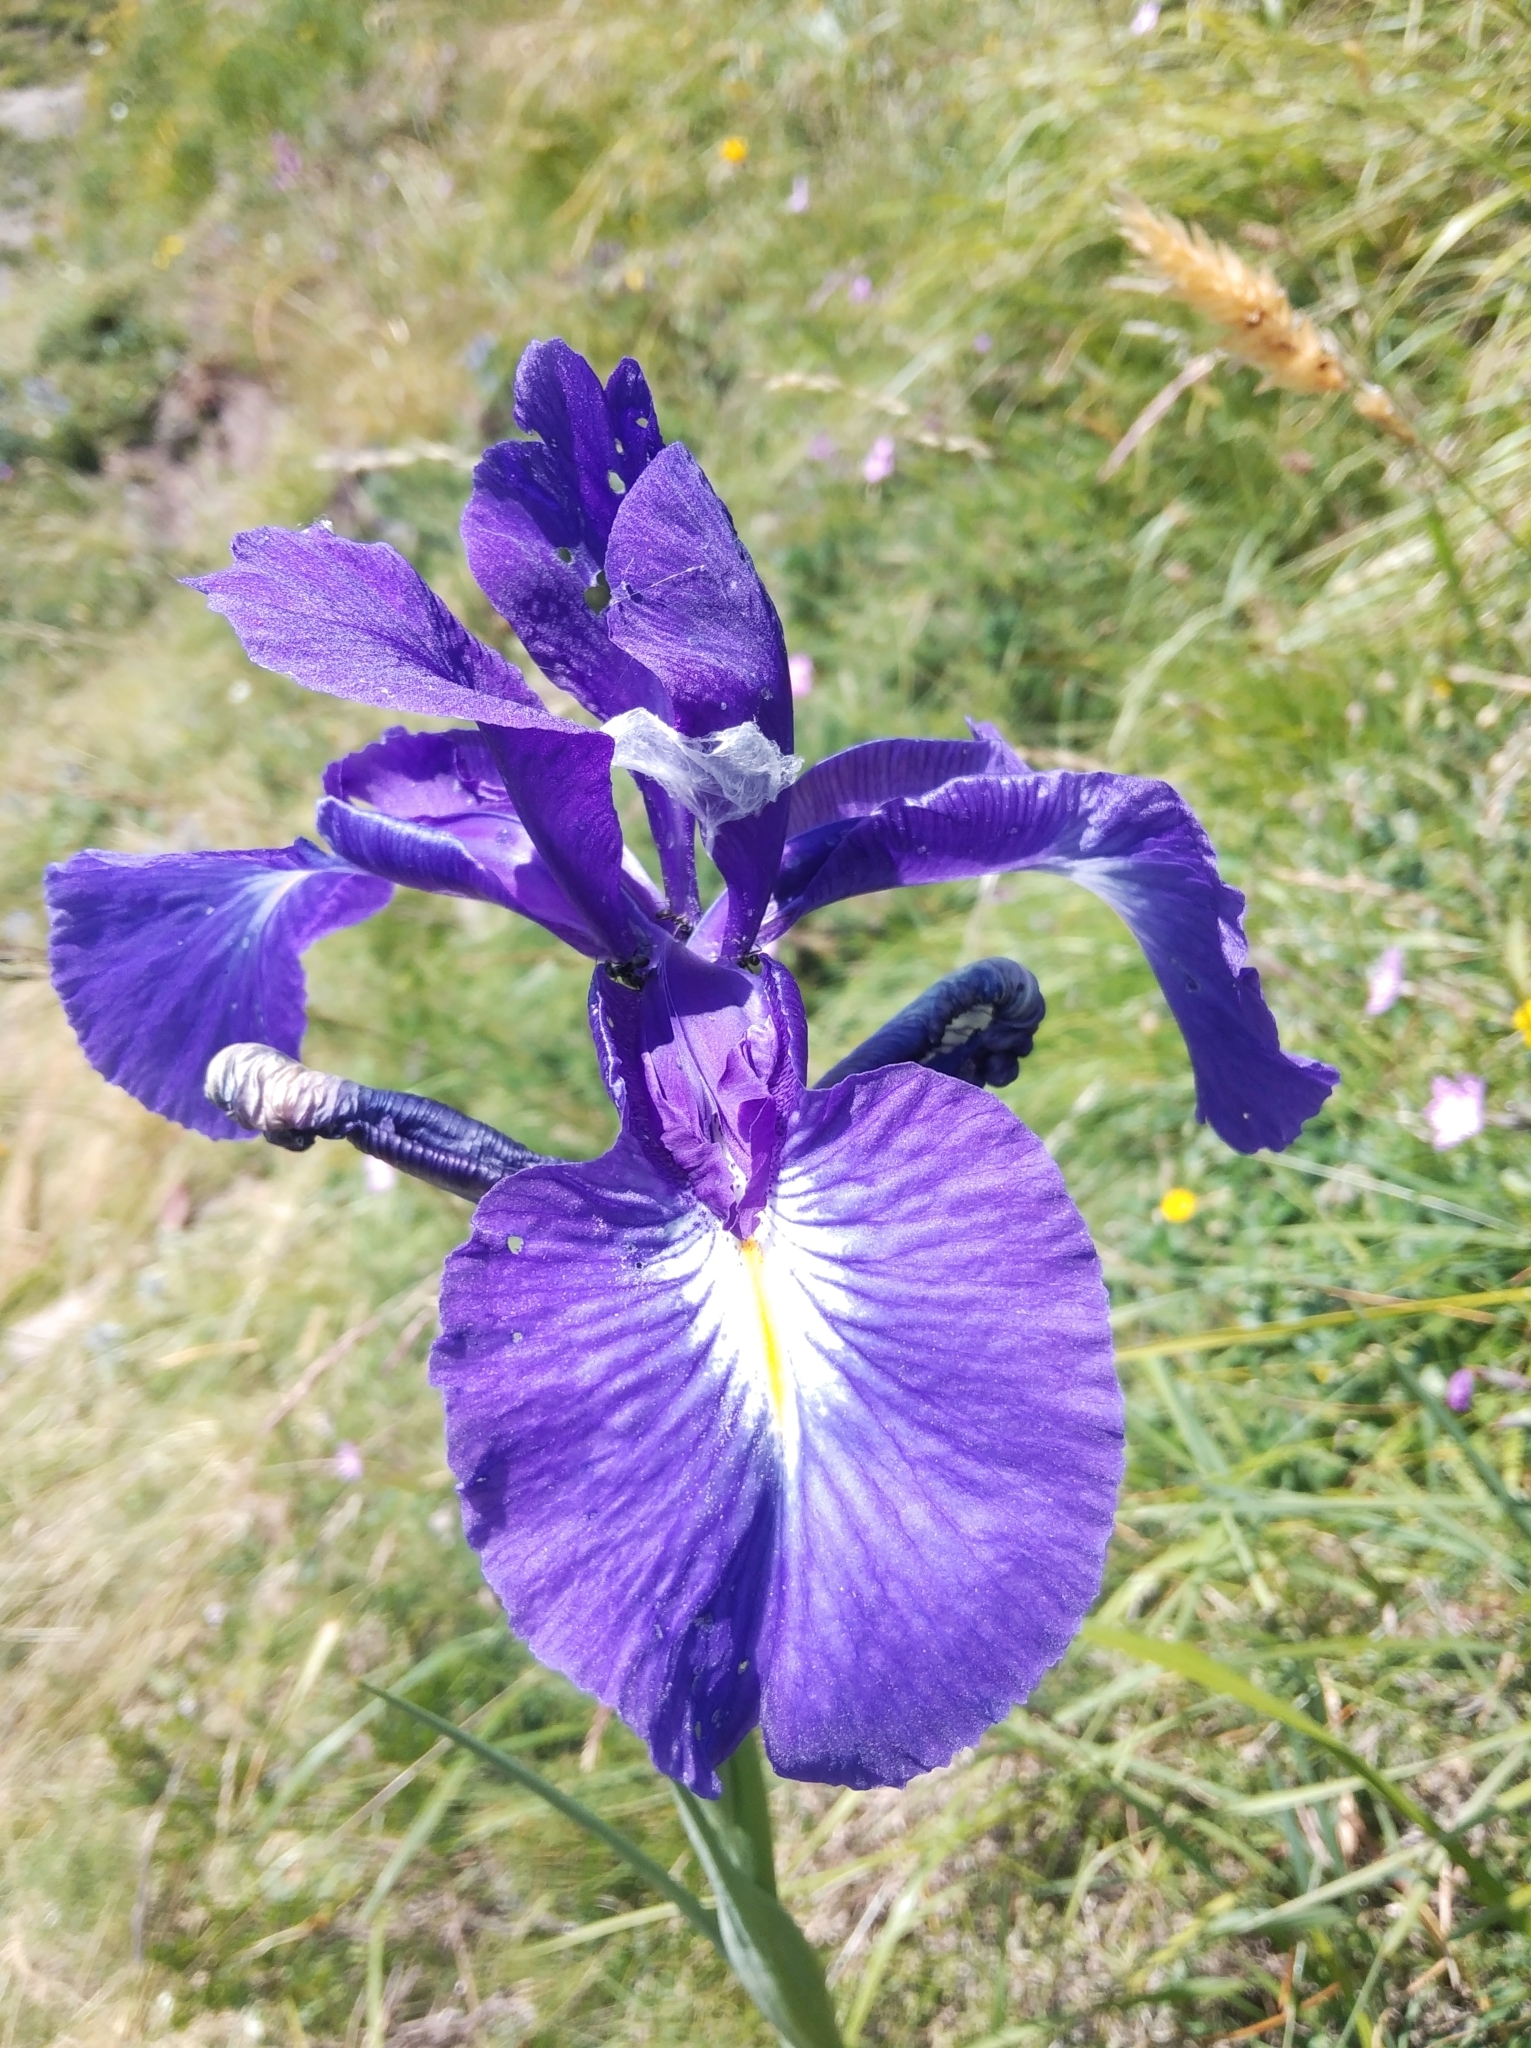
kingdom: Plantae
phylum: Tracheophyta
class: Liliopsida
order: Asparagales
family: Iridaceae
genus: Iris
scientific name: Iris
